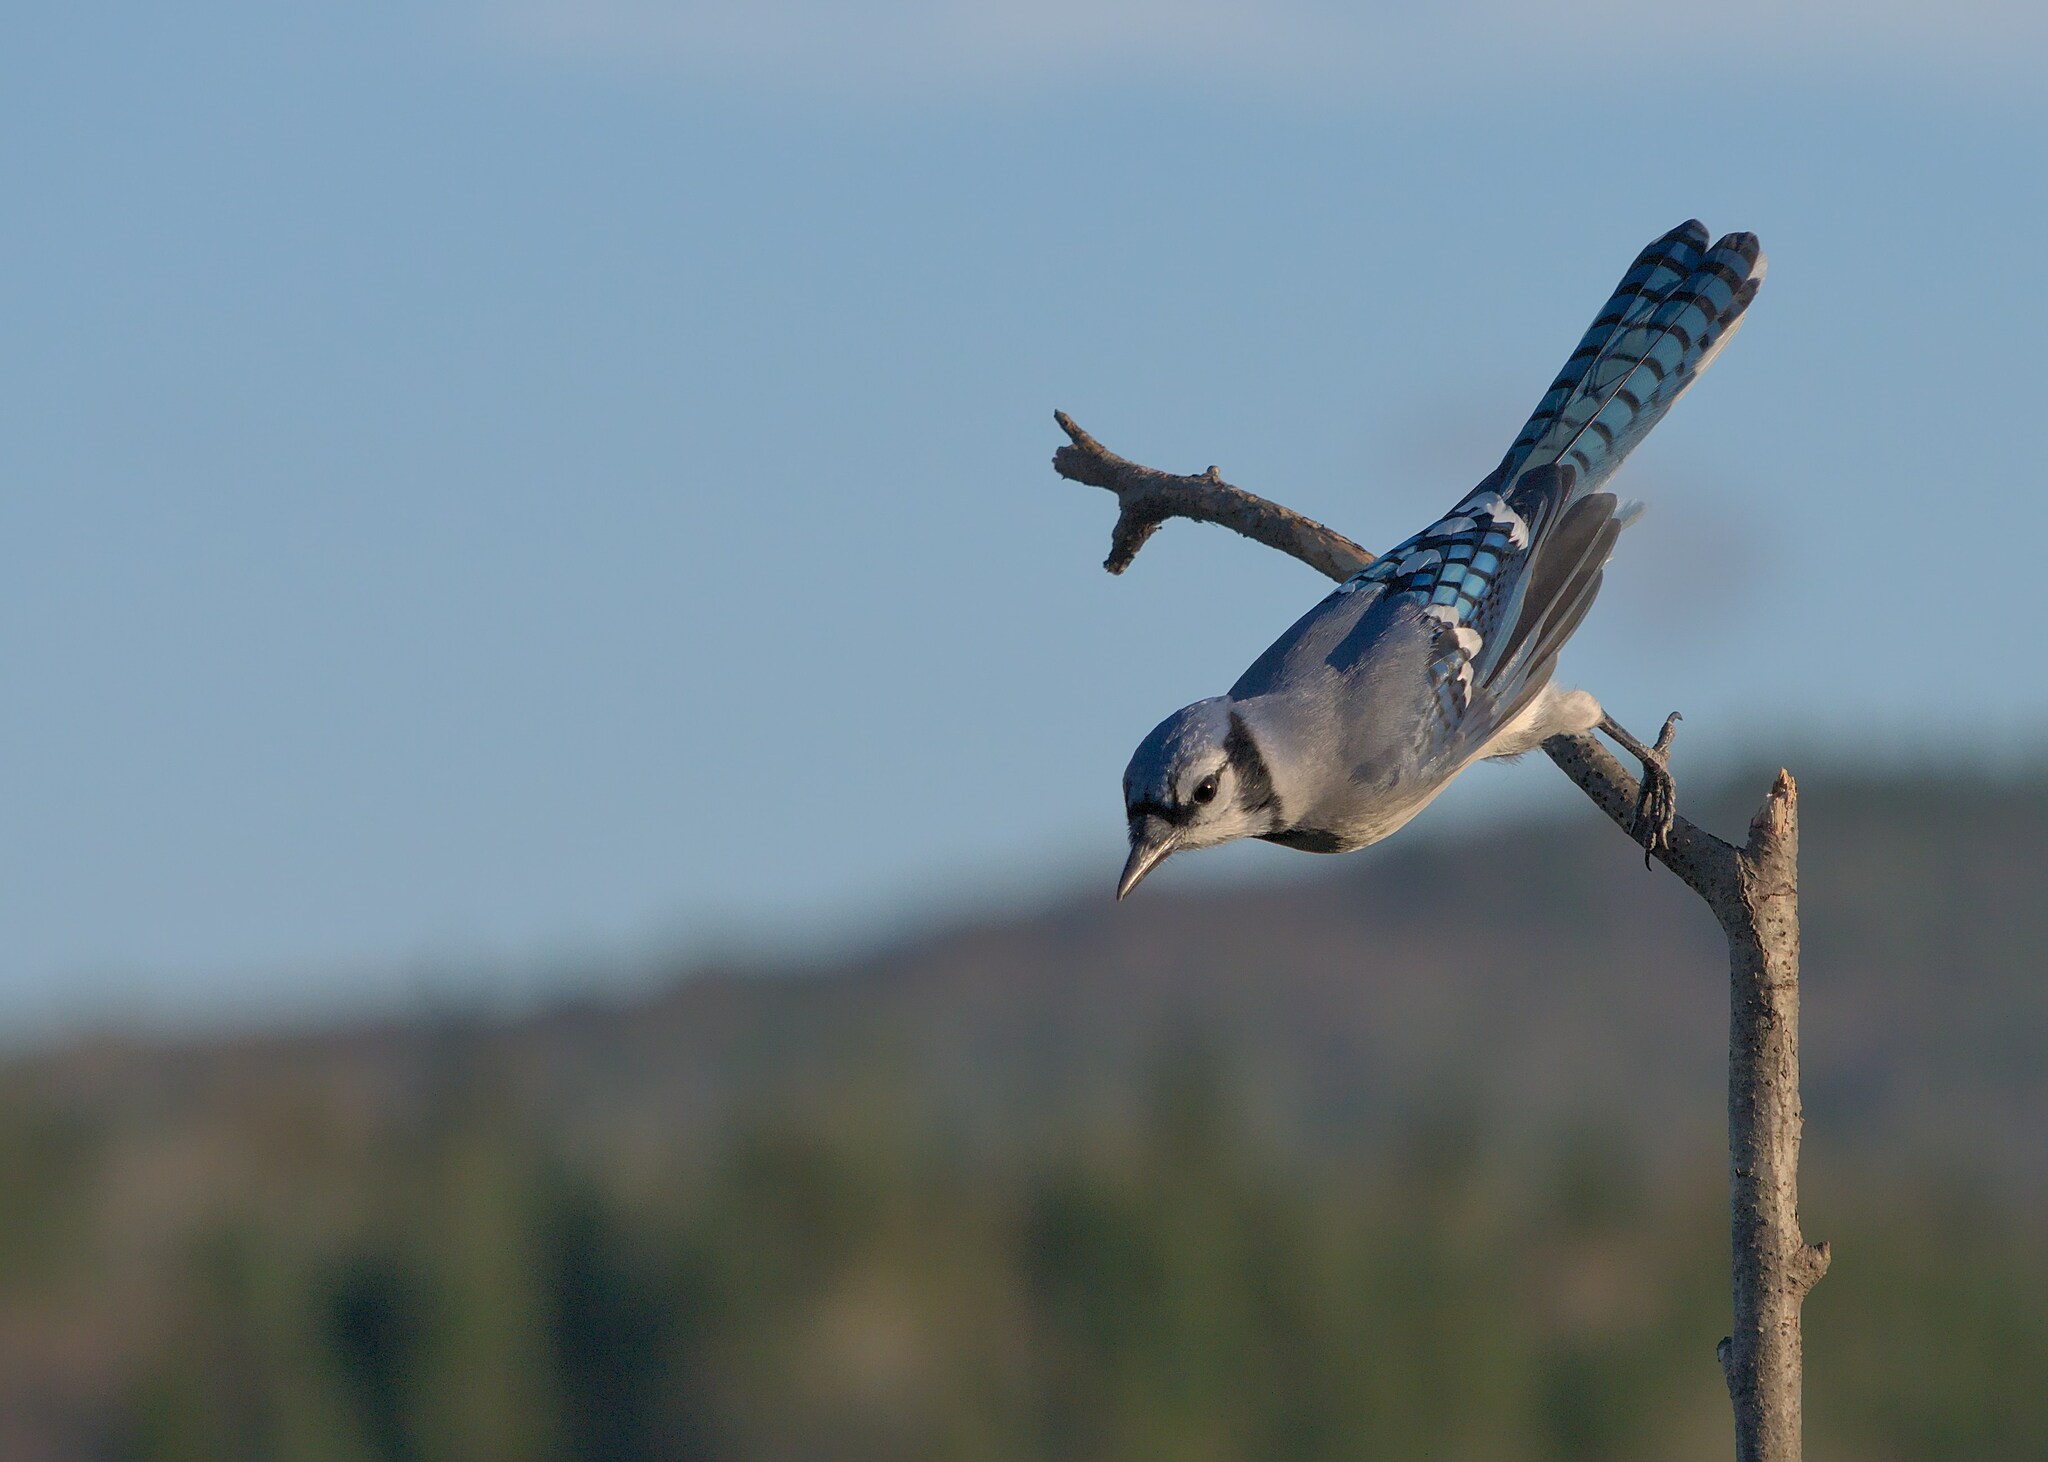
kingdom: Animalia
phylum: Chordata
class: Aves
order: Passeriformes
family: Corvidae
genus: Cyanocitta
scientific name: Cyanocitta cristata
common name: Blue jay
